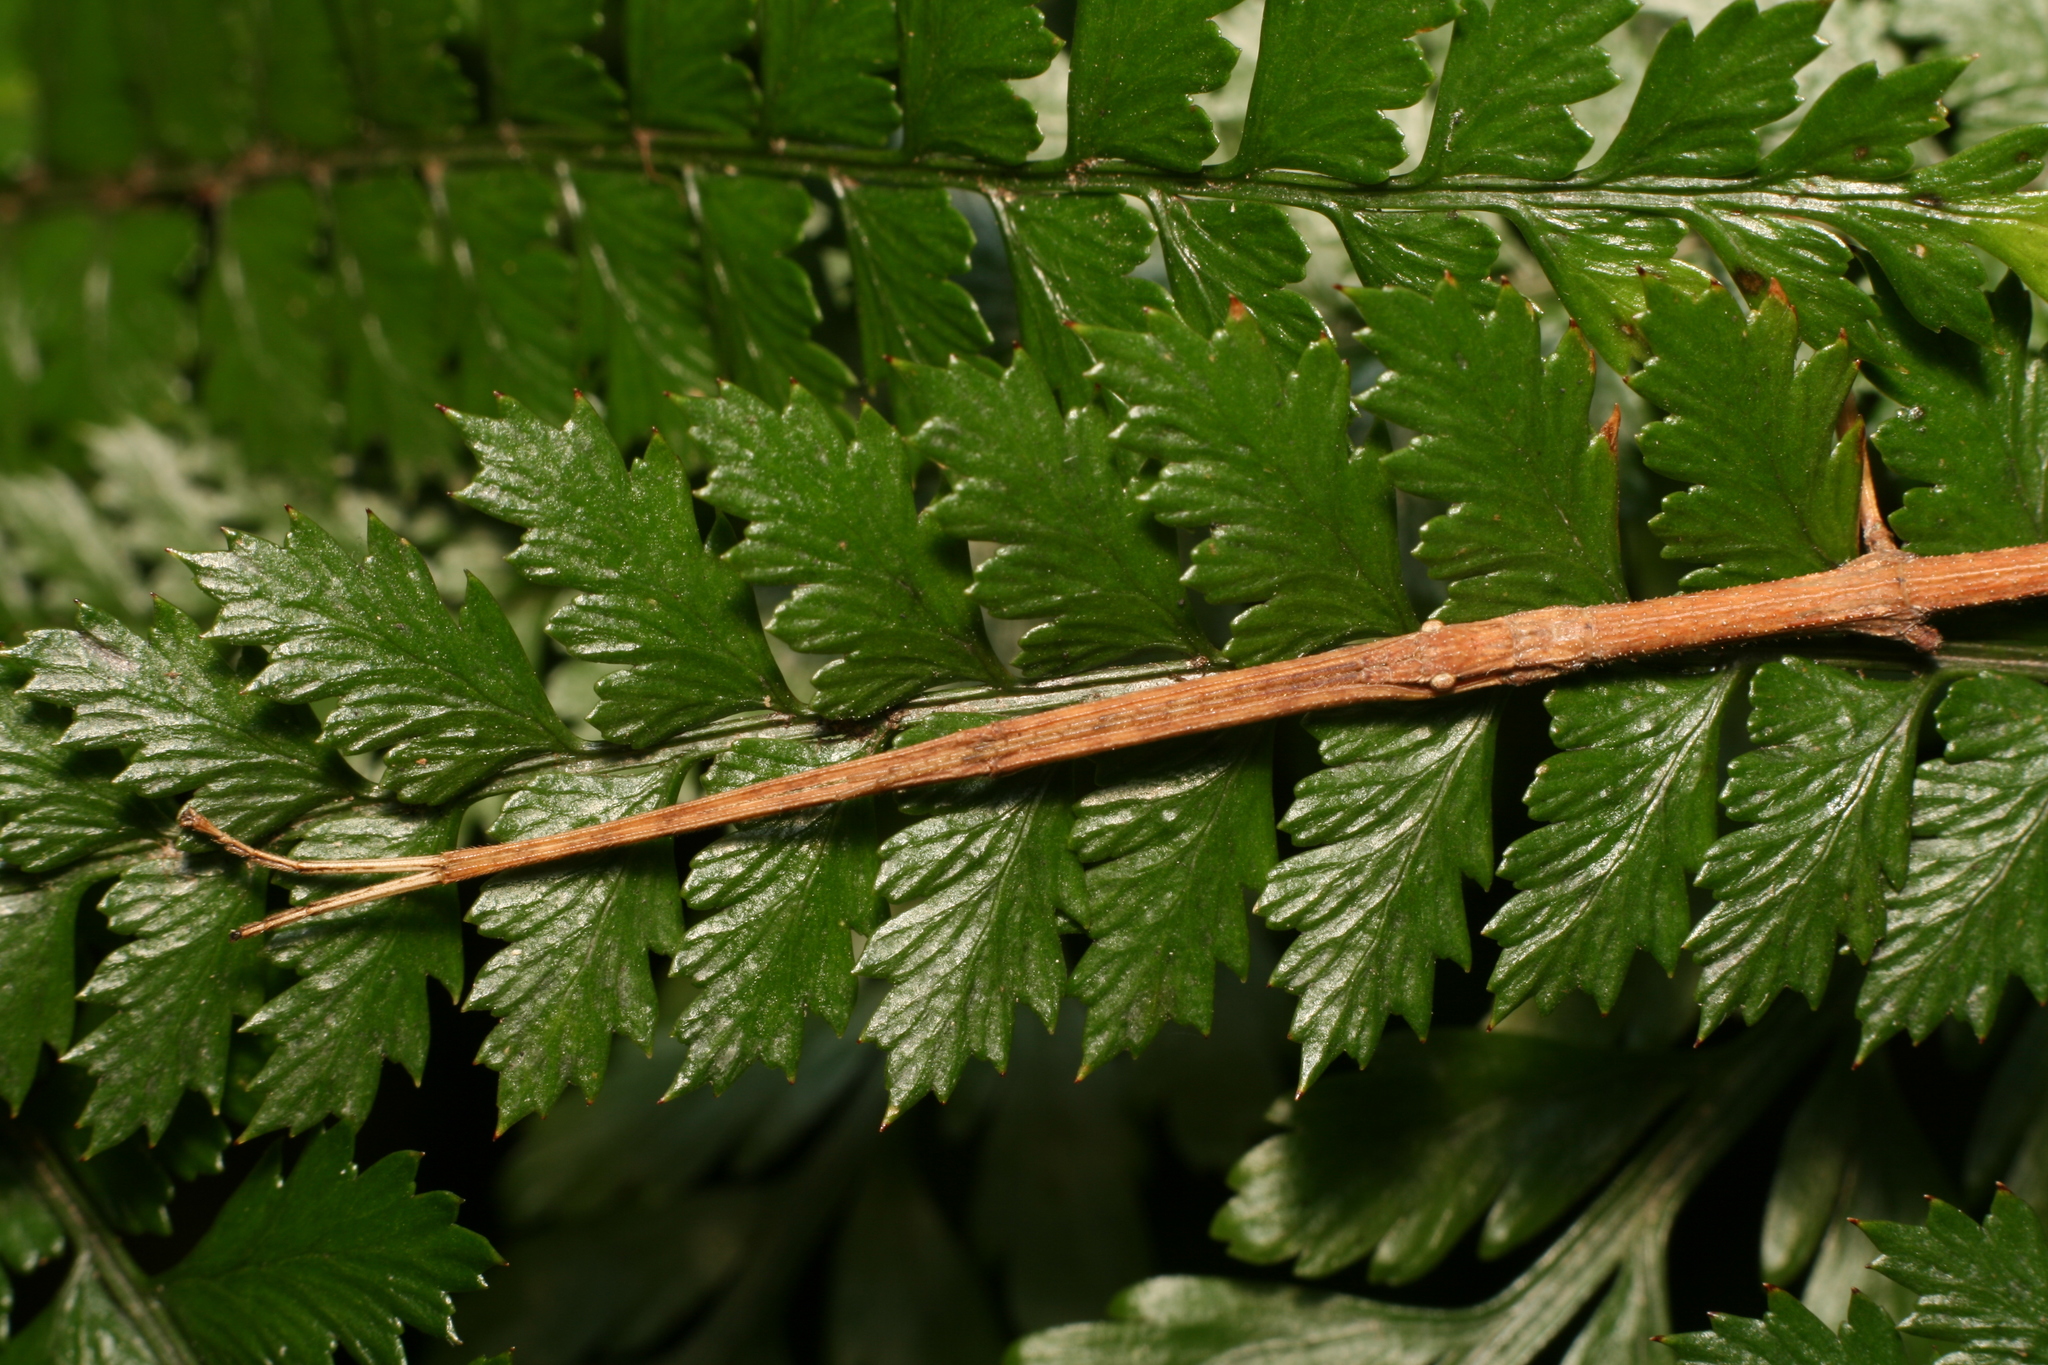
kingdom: Animalia
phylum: Arthropoda
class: Insecta
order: Phasmida
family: Phasmatidae
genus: Tectarchus
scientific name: Tectarchus salebrosus
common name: Lesser rough-skinned stick insect
